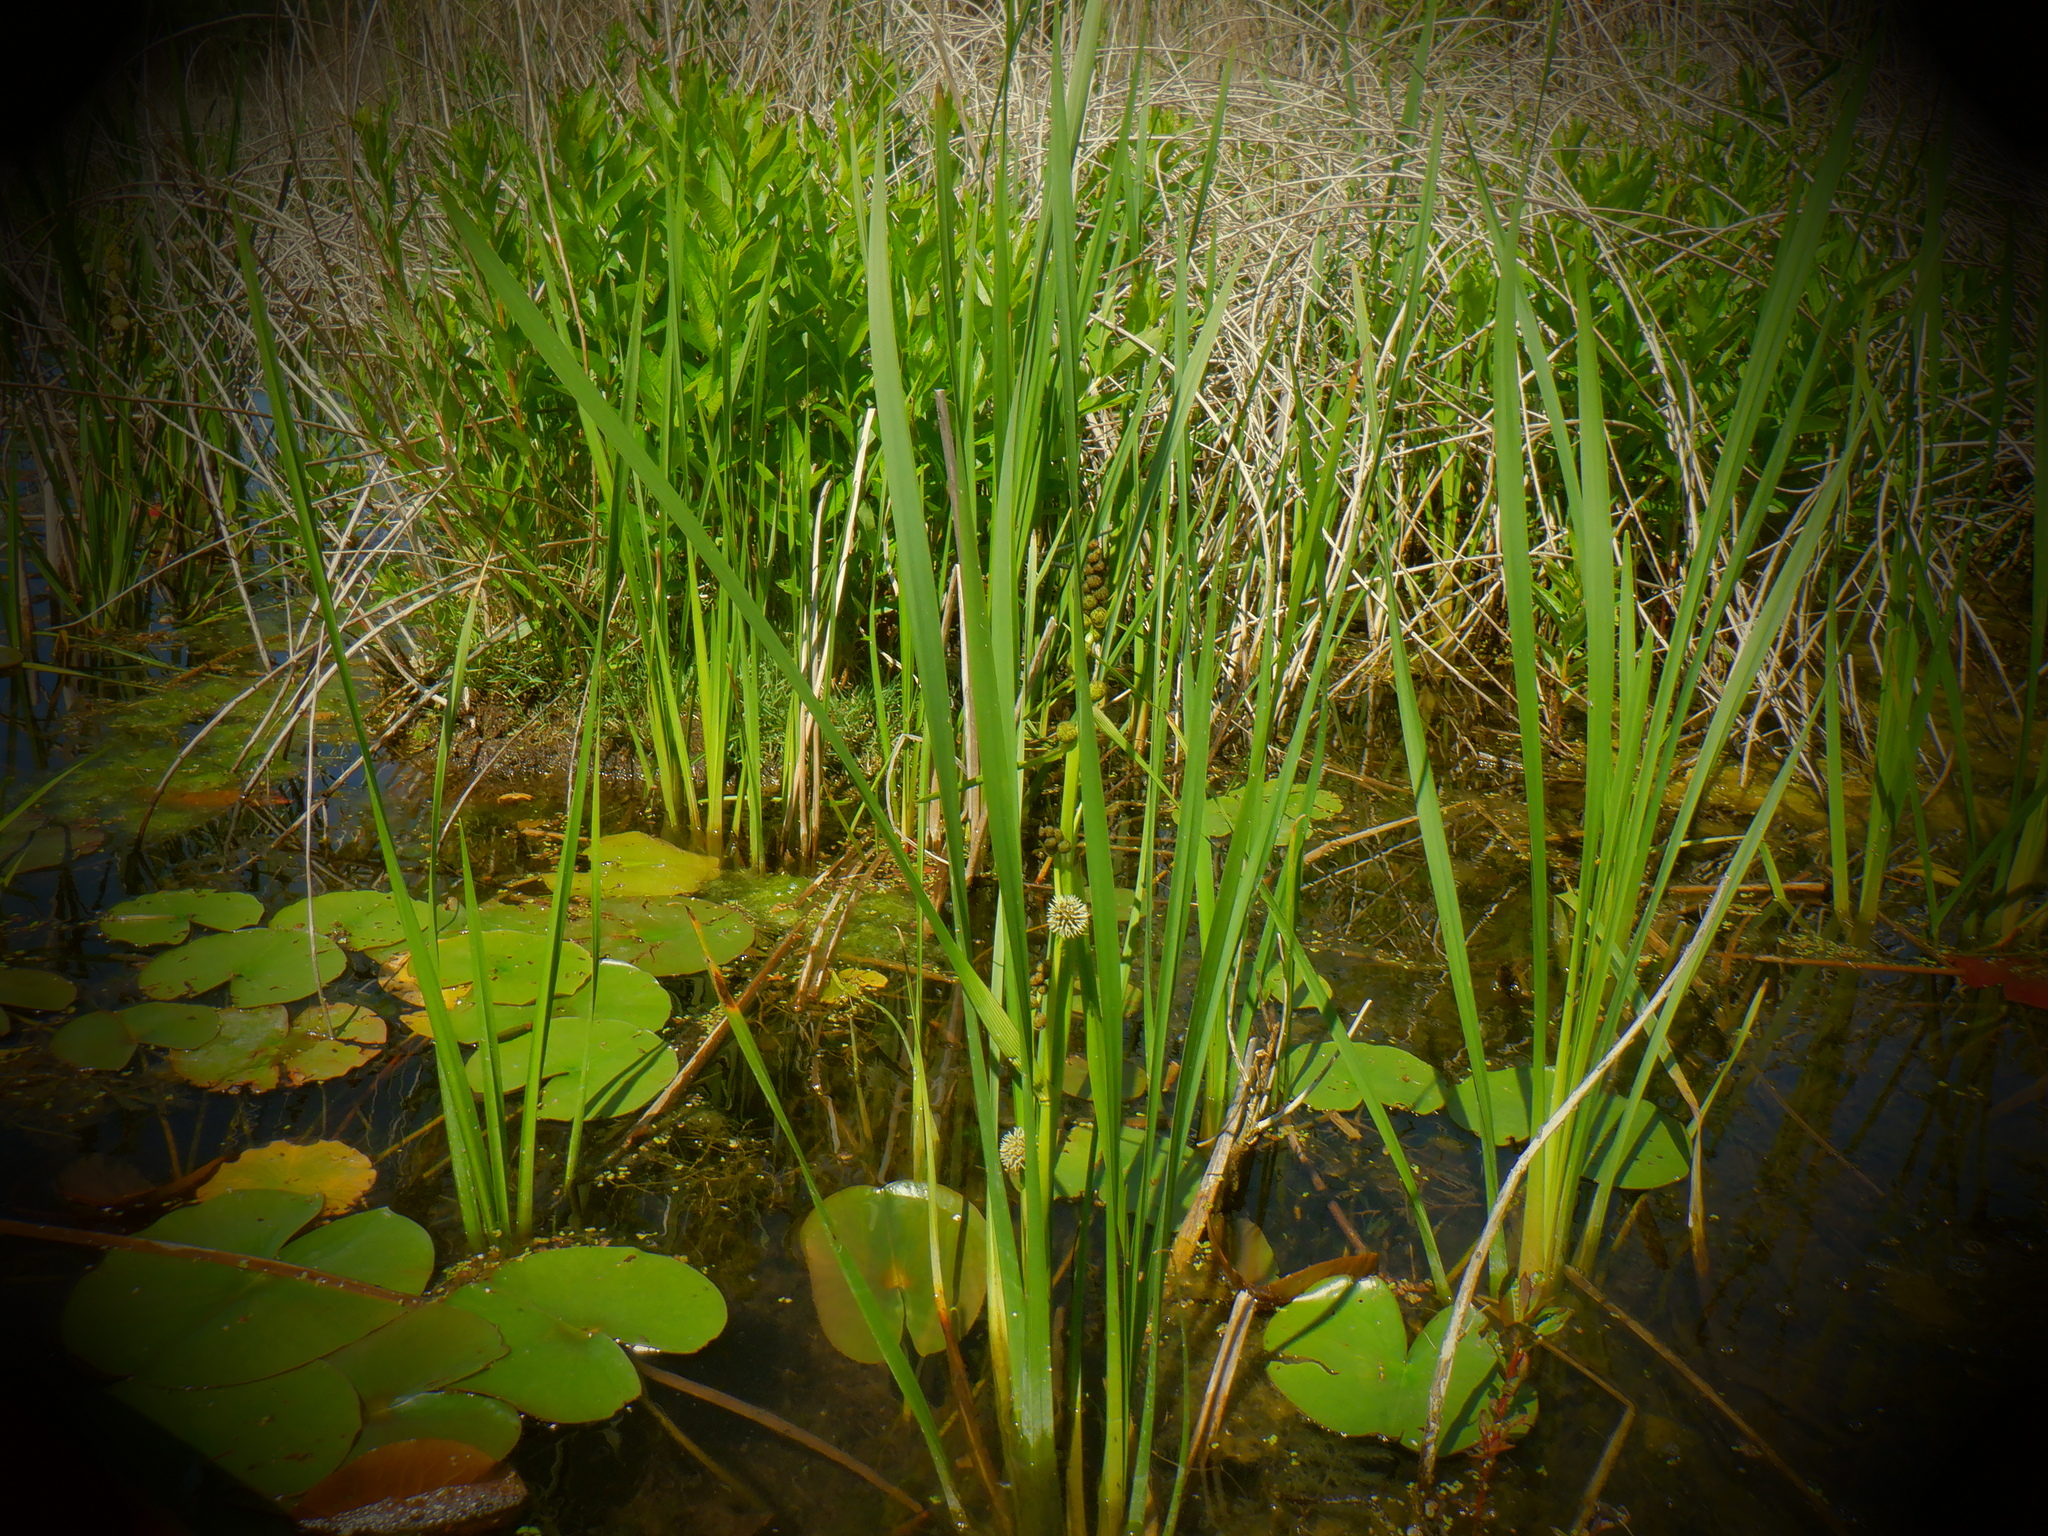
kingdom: Plantae
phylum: Tracheophyta
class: Liliopsida
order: Poales
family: Typhaceae
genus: Sparganium
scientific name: Sparganium eurycarpum
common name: Broad-fruited burreed
